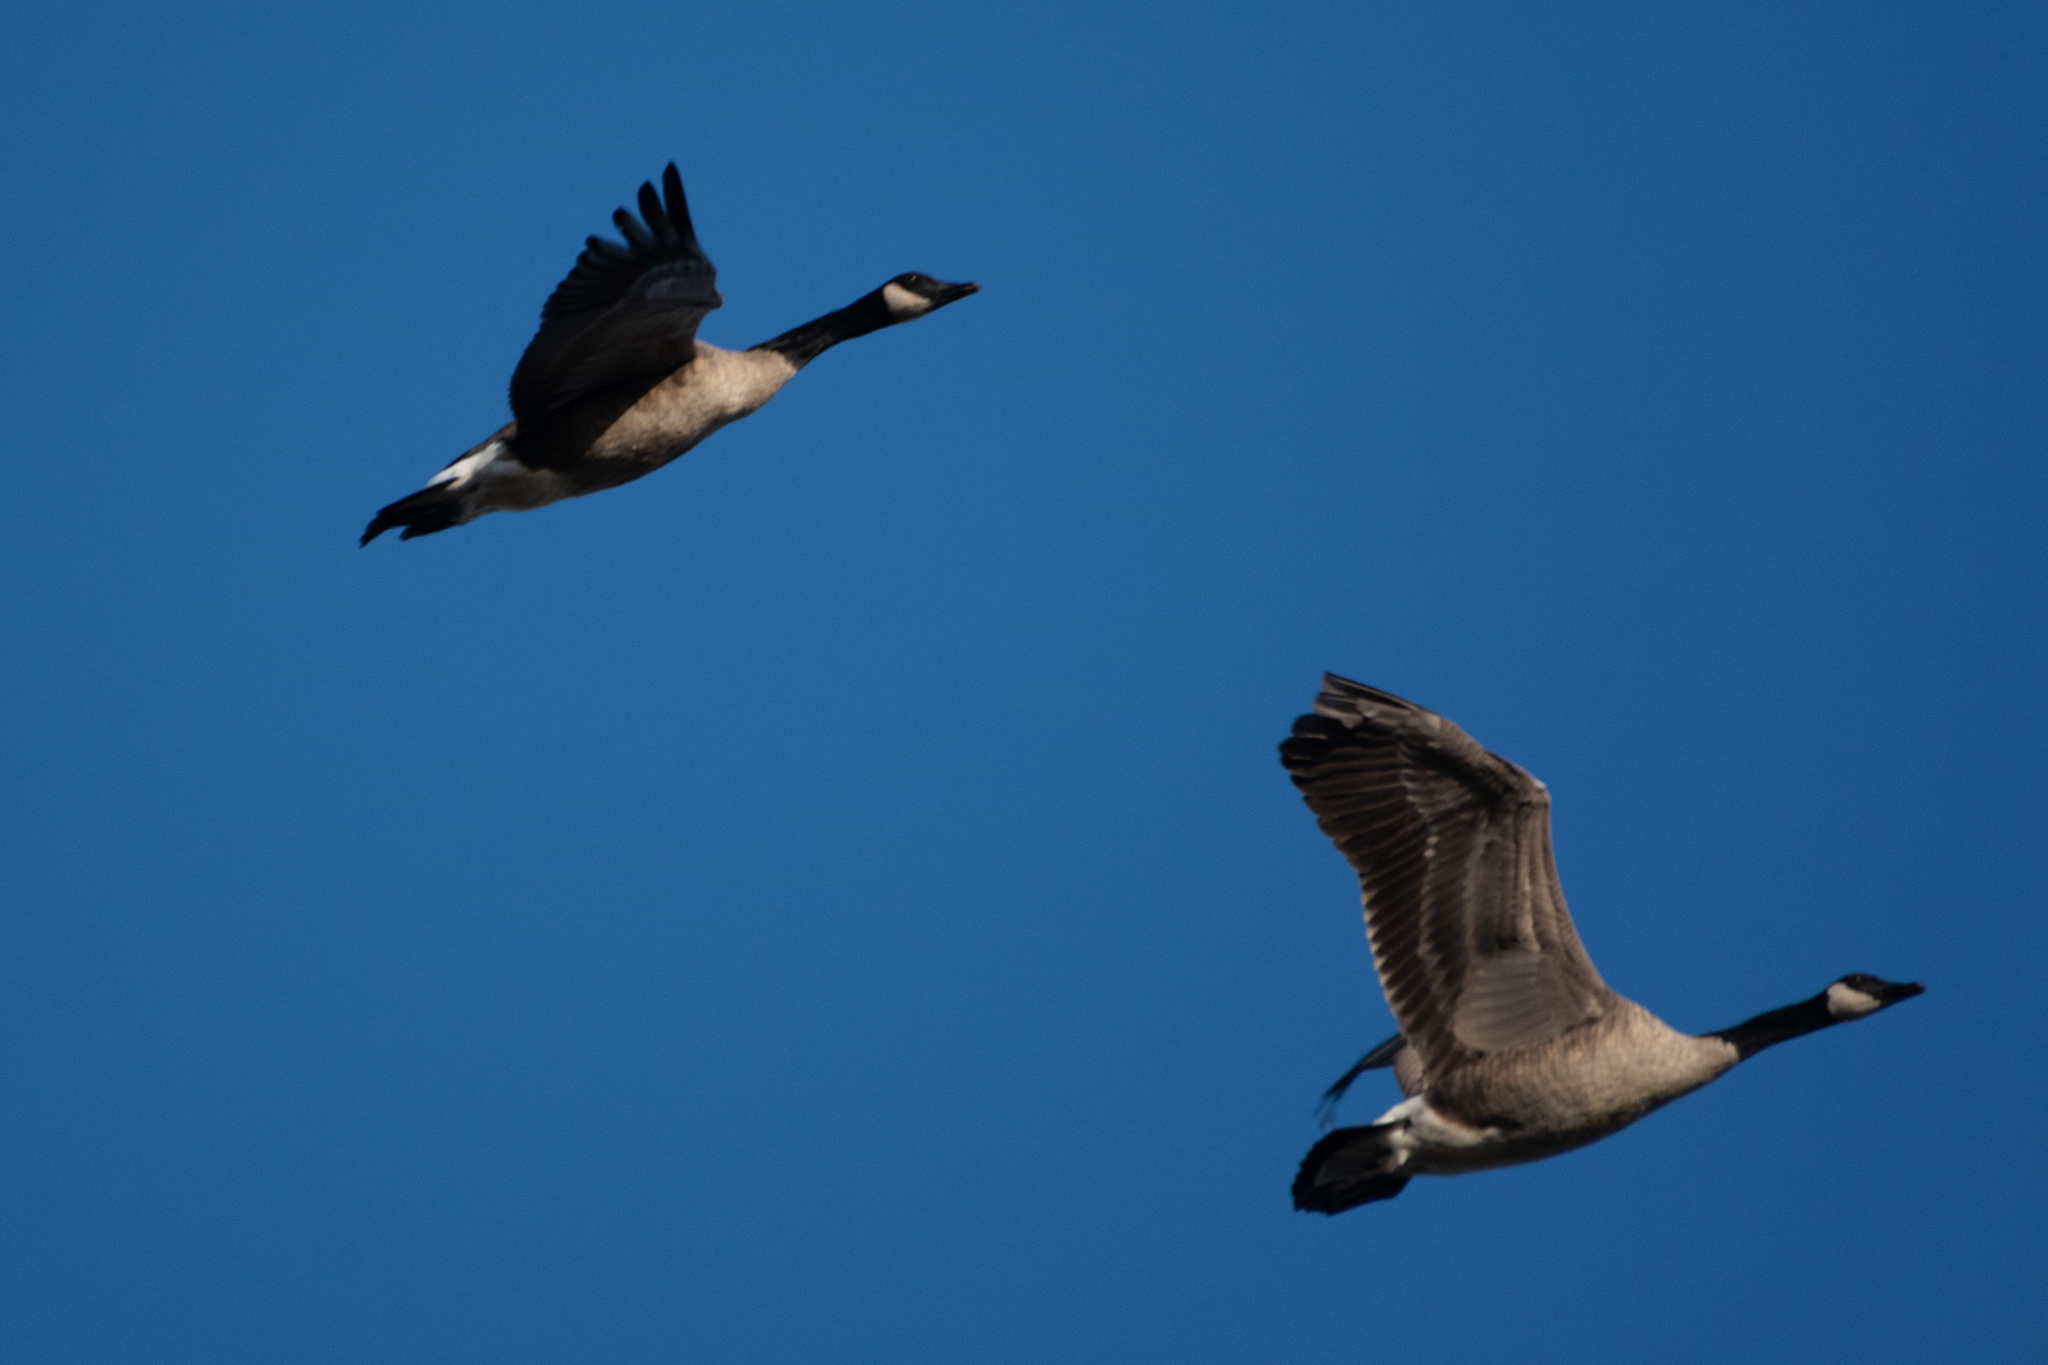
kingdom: Animalia
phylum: Chordata
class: Aves
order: Anseriformes
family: Anatidae
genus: Branta
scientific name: Branta canadensis
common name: Canada goose
